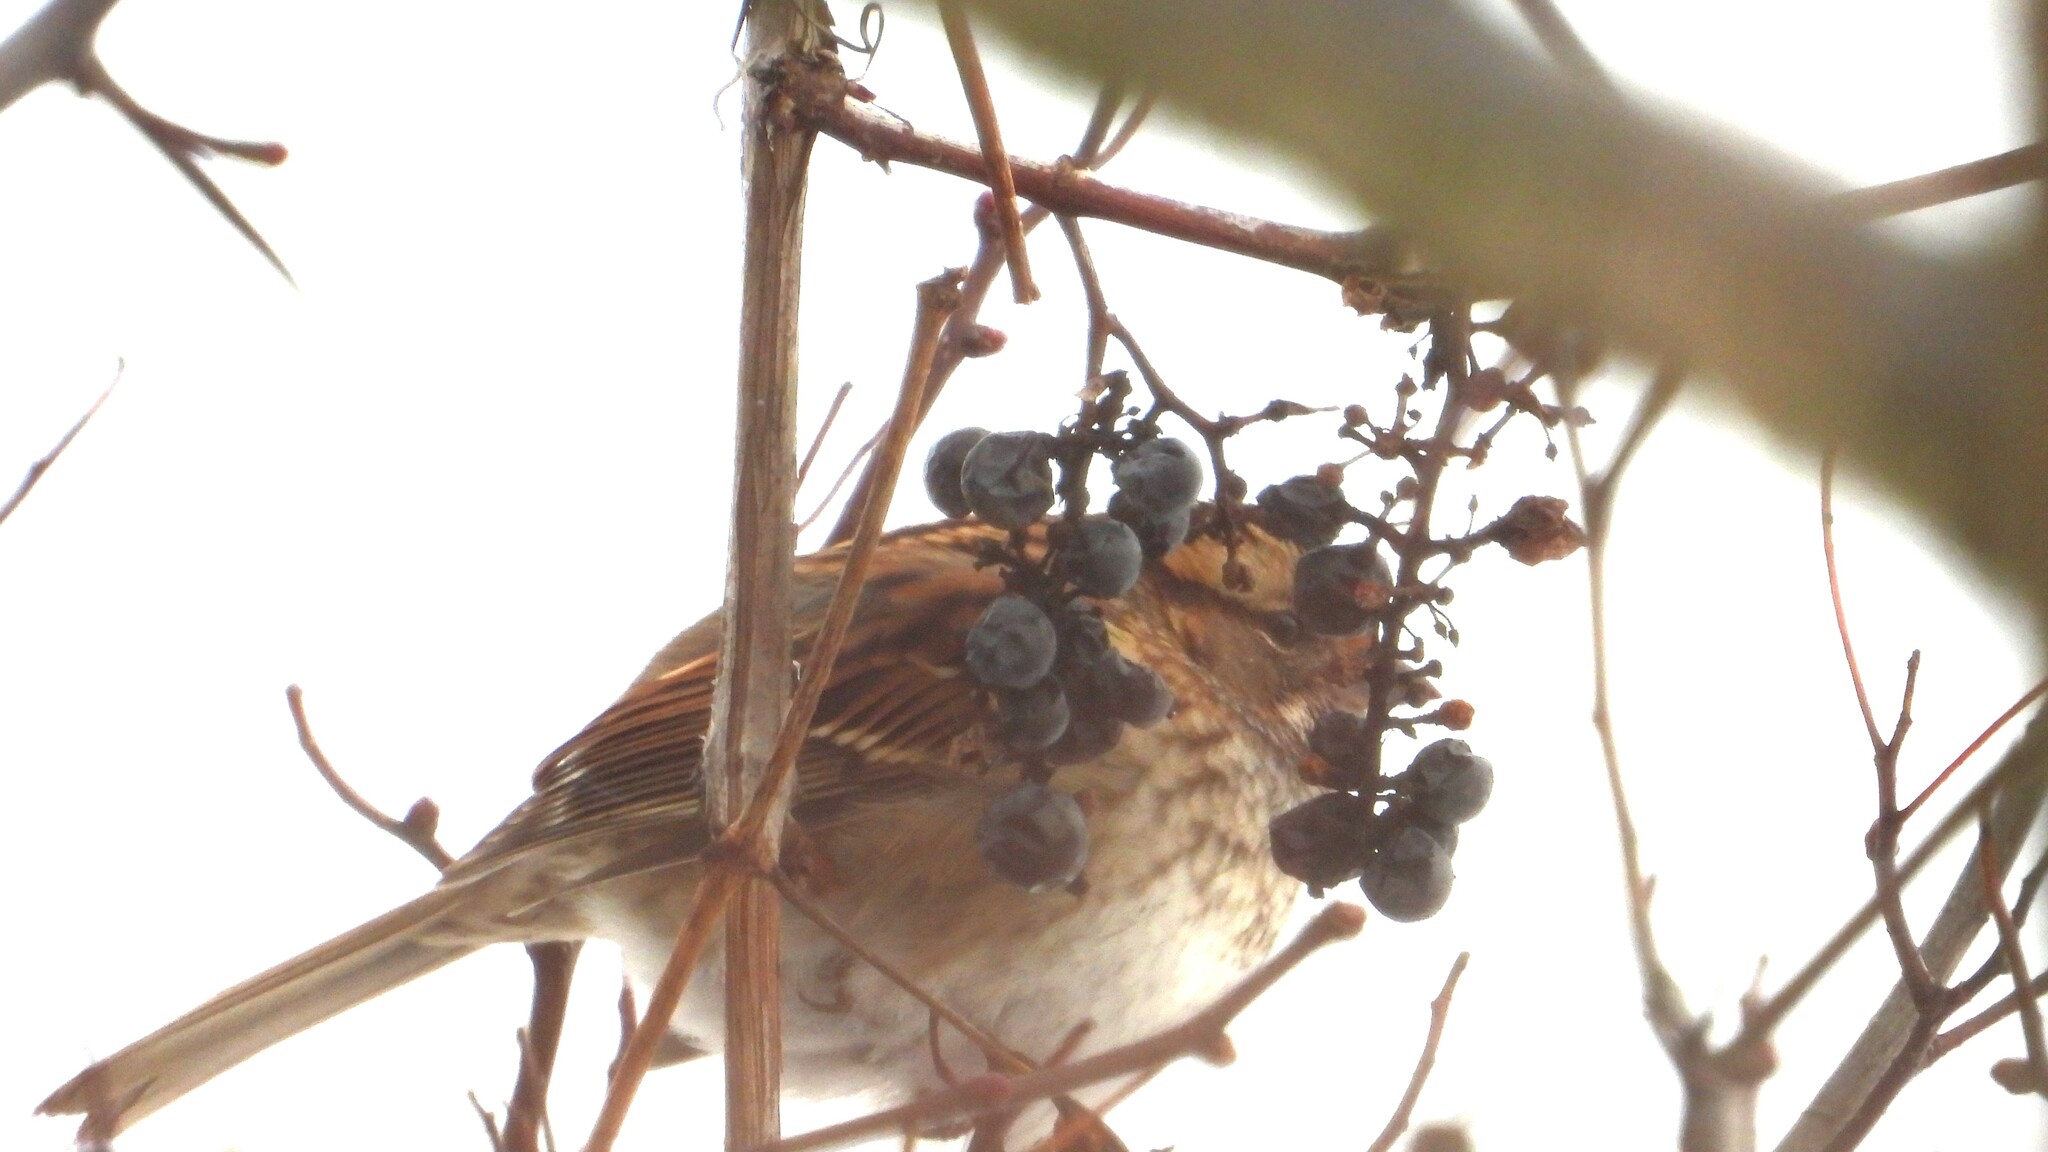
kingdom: Animalia
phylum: Chordata
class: Aves
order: Passeriformes
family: Passerellidae
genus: Zonotrichia
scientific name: Zonotrichia albicollis
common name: White-throated sparrow
